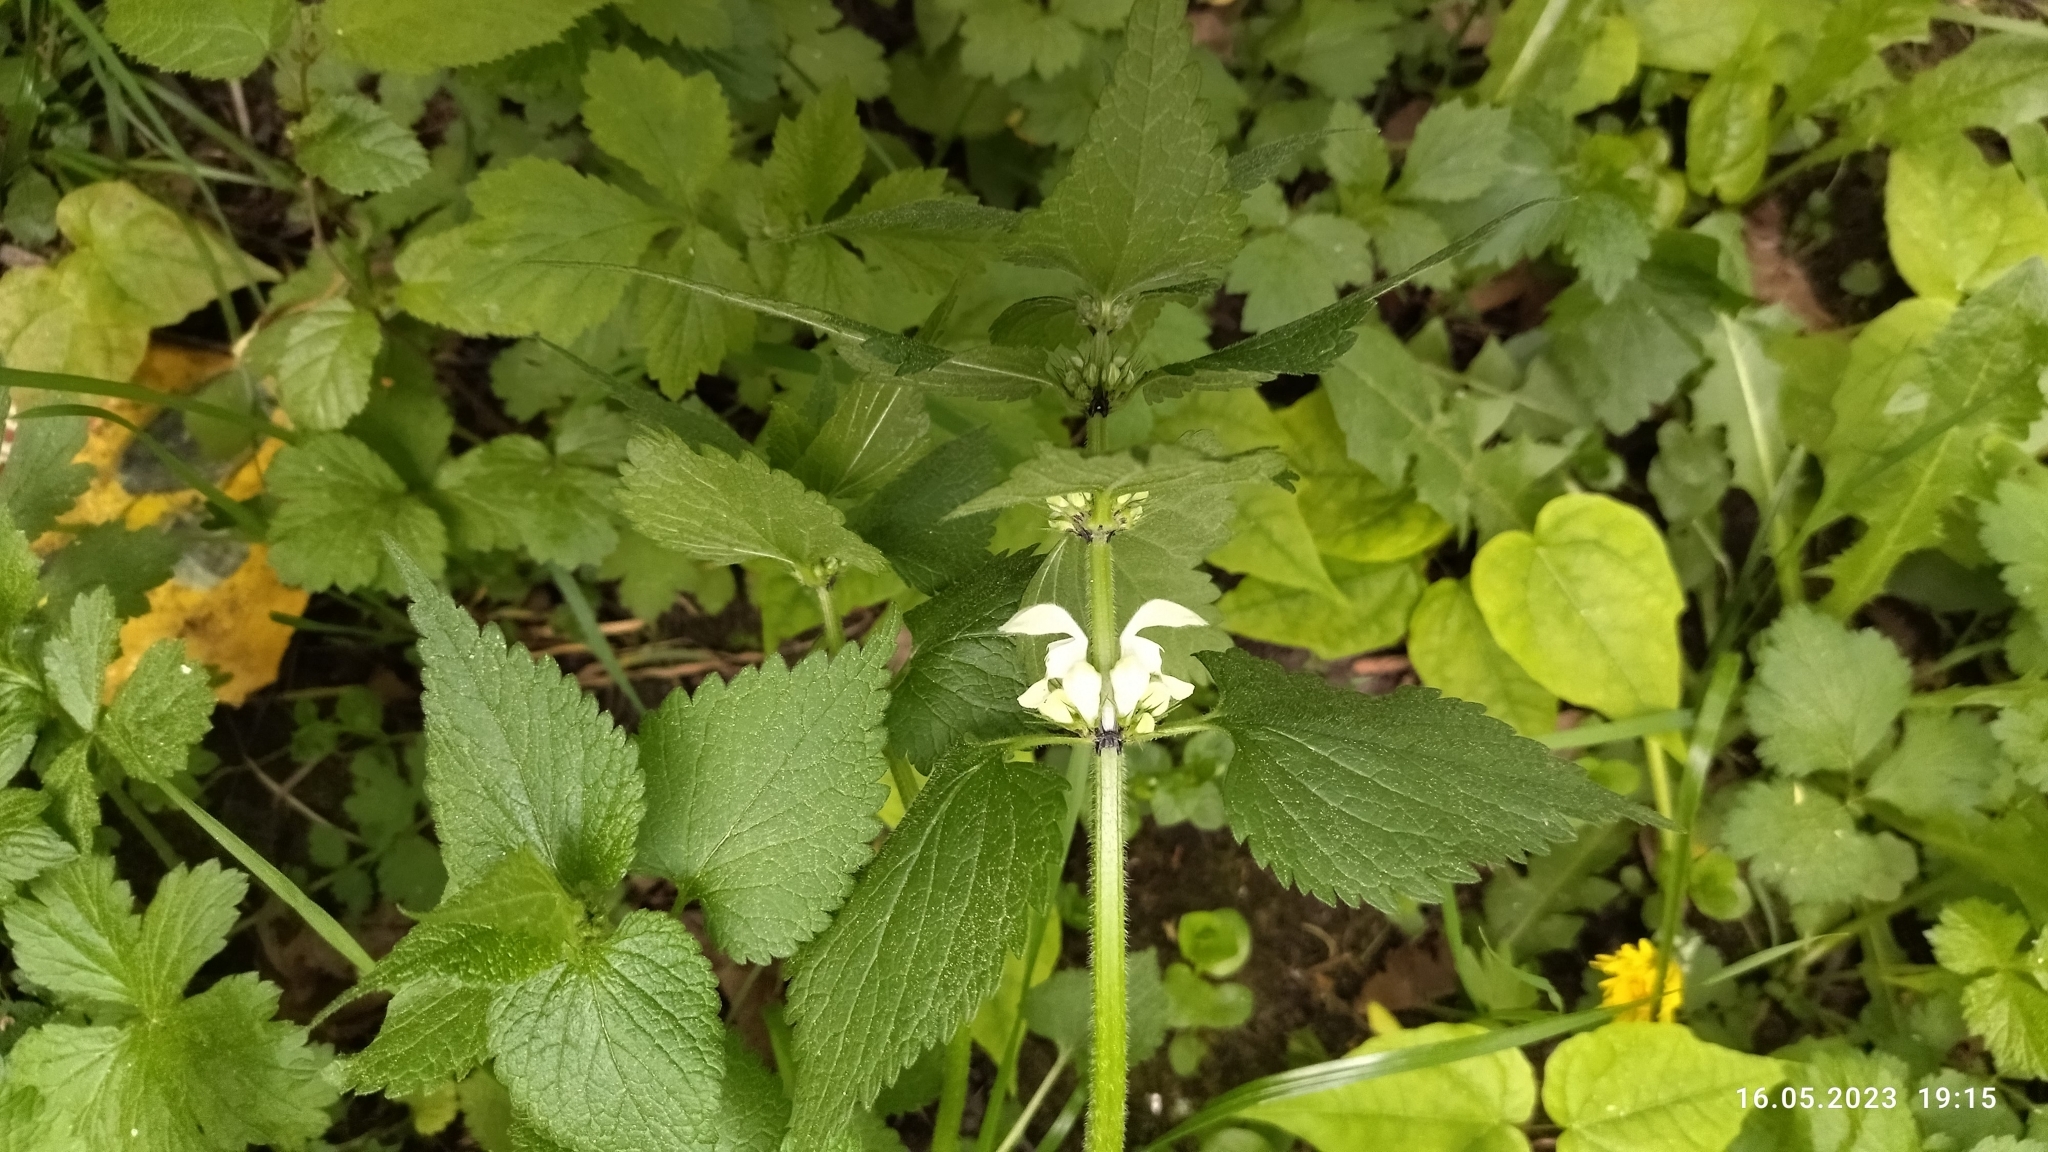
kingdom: Plantae
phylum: Tracheophyta
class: Magnoliopsida
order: Lamiales
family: Lamiaceae
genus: Lamium
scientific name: Lamium album
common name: White dead-nettle
